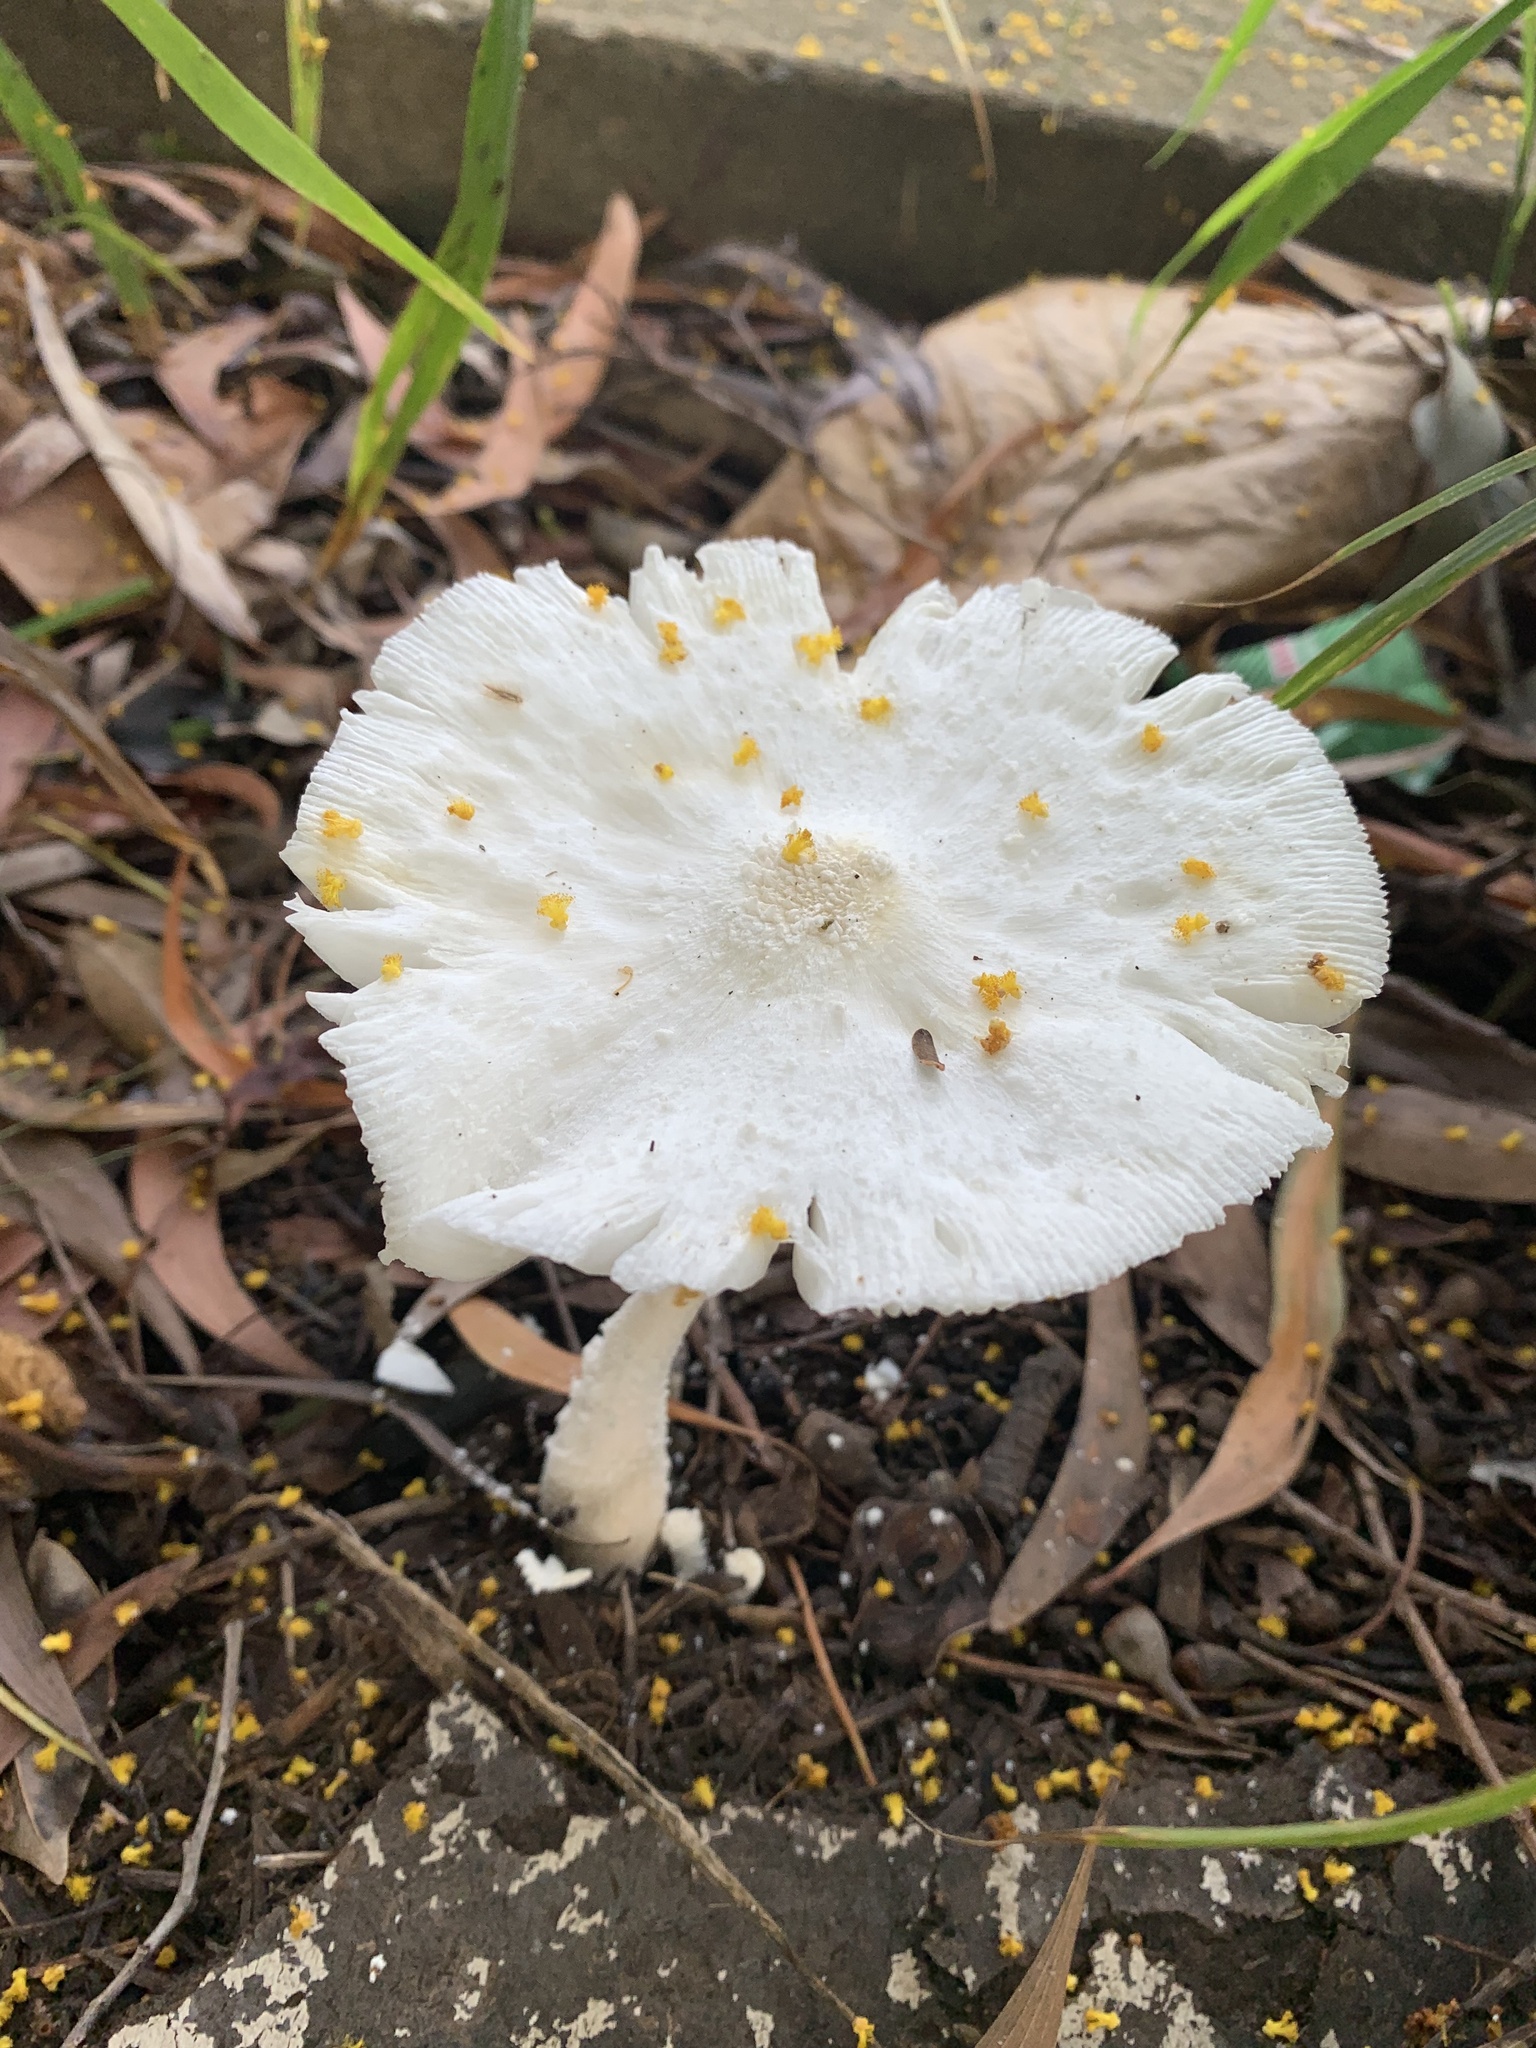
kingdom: Fungi
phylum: Basidiomycota
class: Agaricomycetes
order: Agaricales
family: Agaricaceae
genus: Leucocoprinus
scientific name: Leucocoprinus cretaceus
